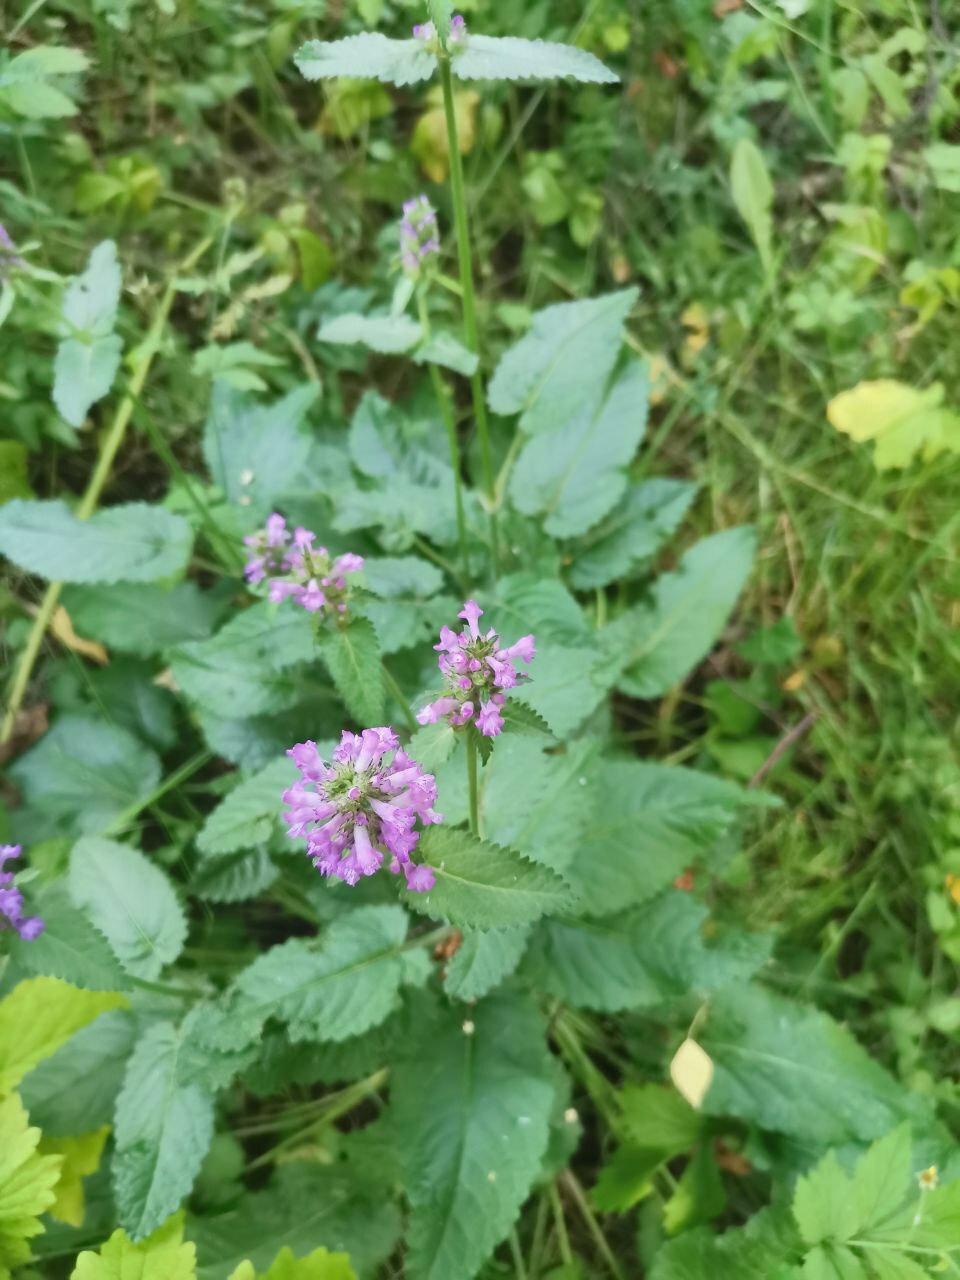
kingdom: Plantae
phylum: Tracheophyta
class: Magnoliopsida
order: Lamiales
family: Lamiaceae
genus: Betonica
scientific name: Betonica officinalis
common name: Bishop's-wort
